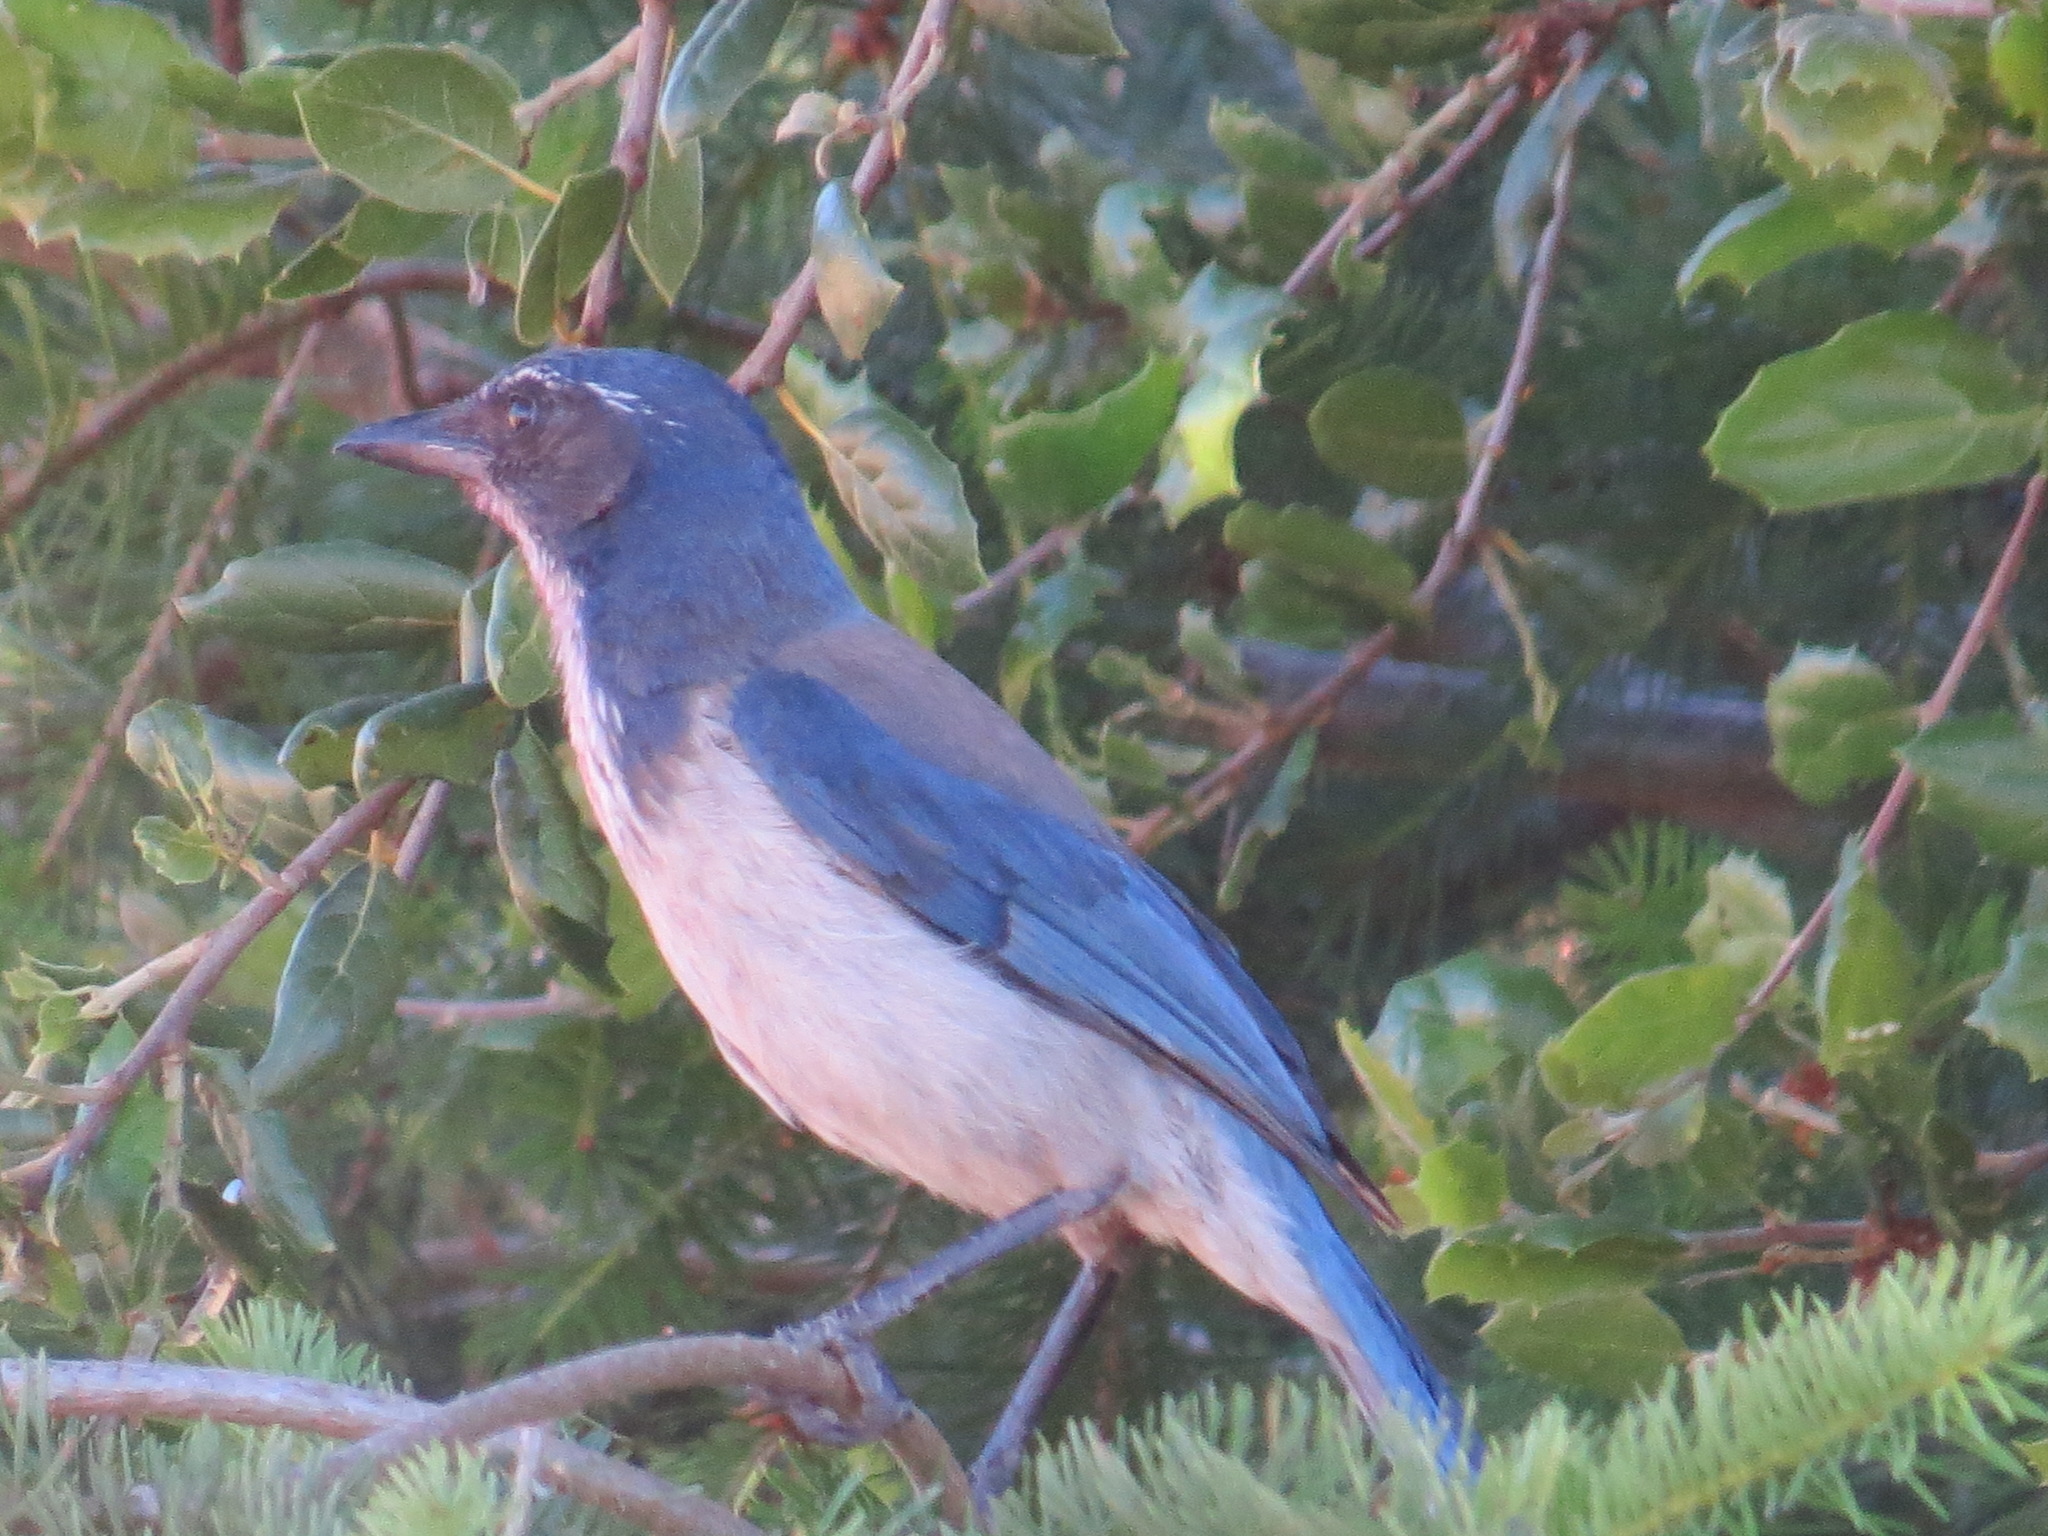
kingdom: Animalia
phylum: Chordata
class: Aves
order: Passeriformes
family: Corvidae
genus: Aphelocoma
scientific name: Aphelocoma californica
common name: California scrub-jay
